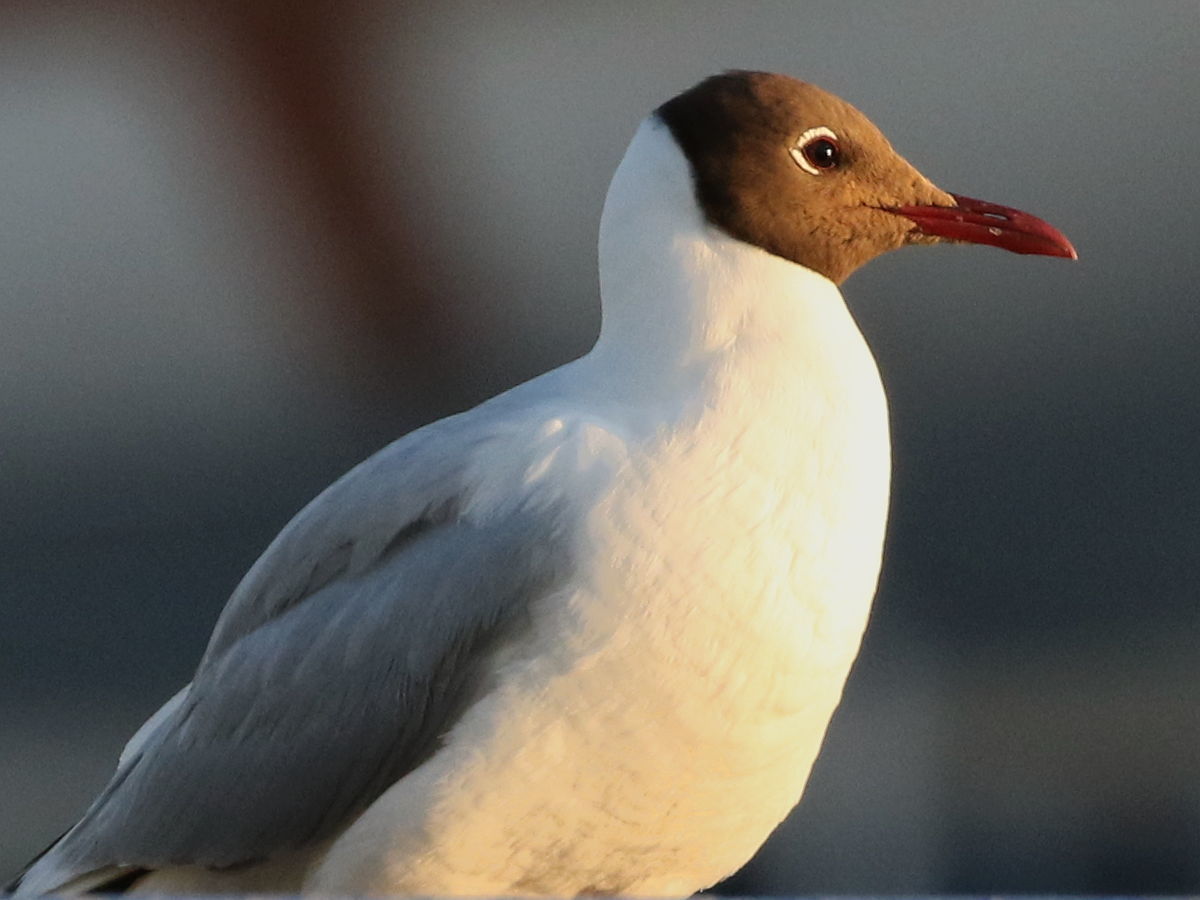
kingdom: Animalia
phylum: Chordata
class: Aves
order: Charadriiformes
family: Laridae
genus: Chroicocephalus
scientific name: Chroicocephalus ridibundus
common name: Black-headed gull
